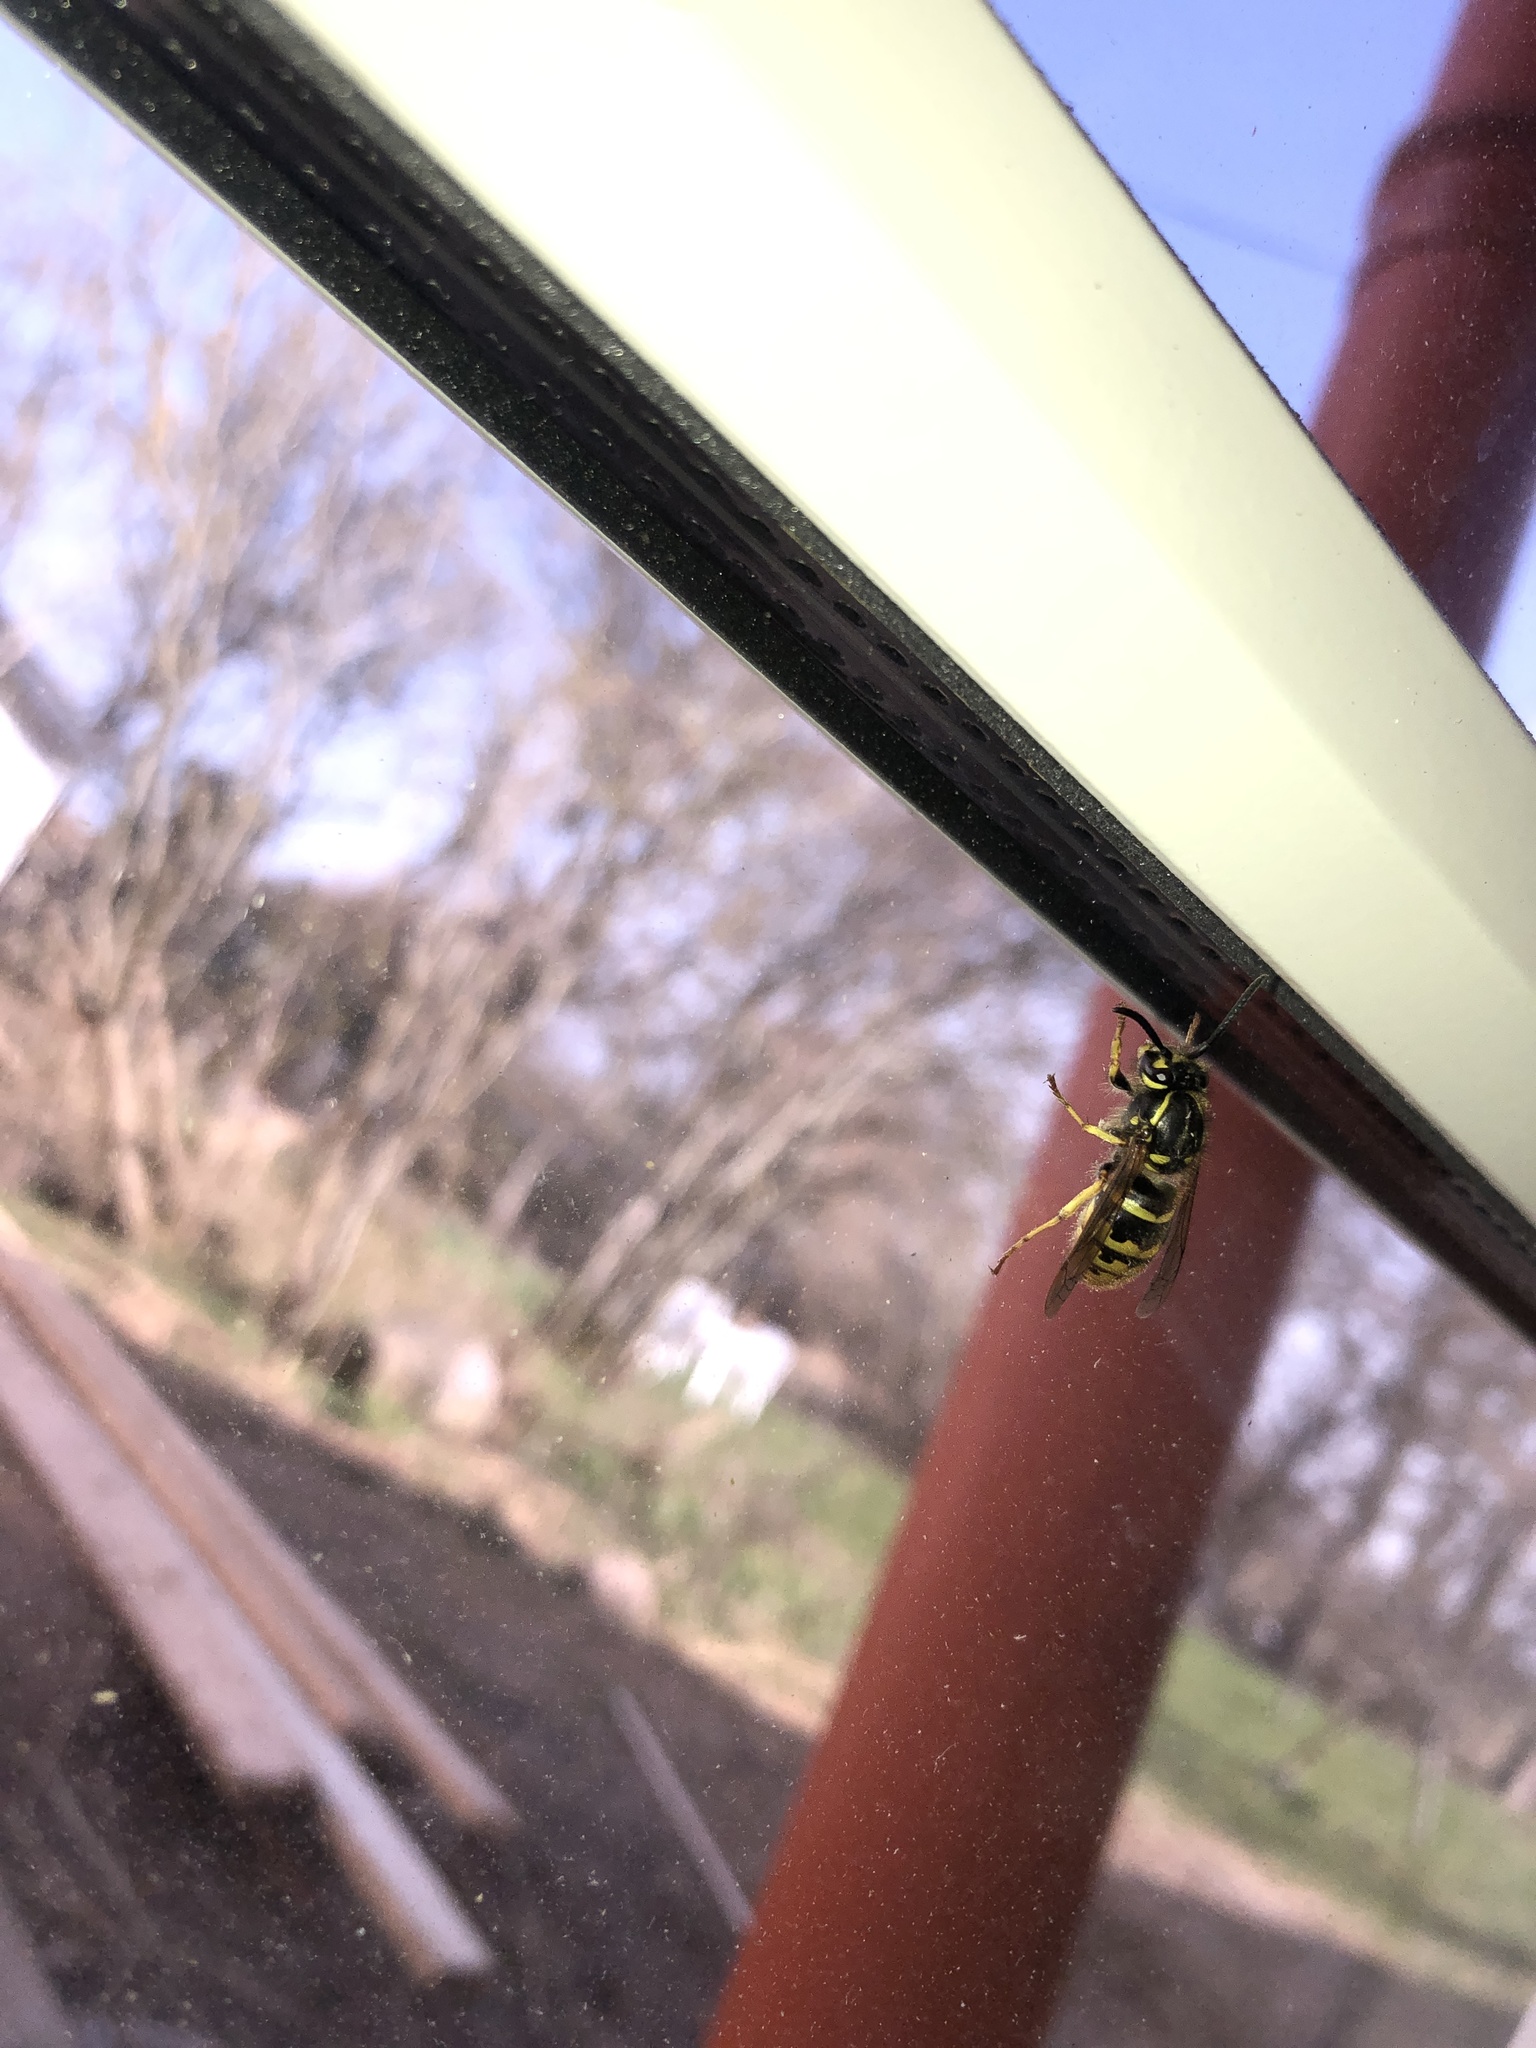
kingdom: Animalia
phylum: Arthropoda
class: Insecta
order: Hymenoptera
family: Vespidae
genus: Vespula
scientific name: Vespula vulgaris
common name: Common wasp
